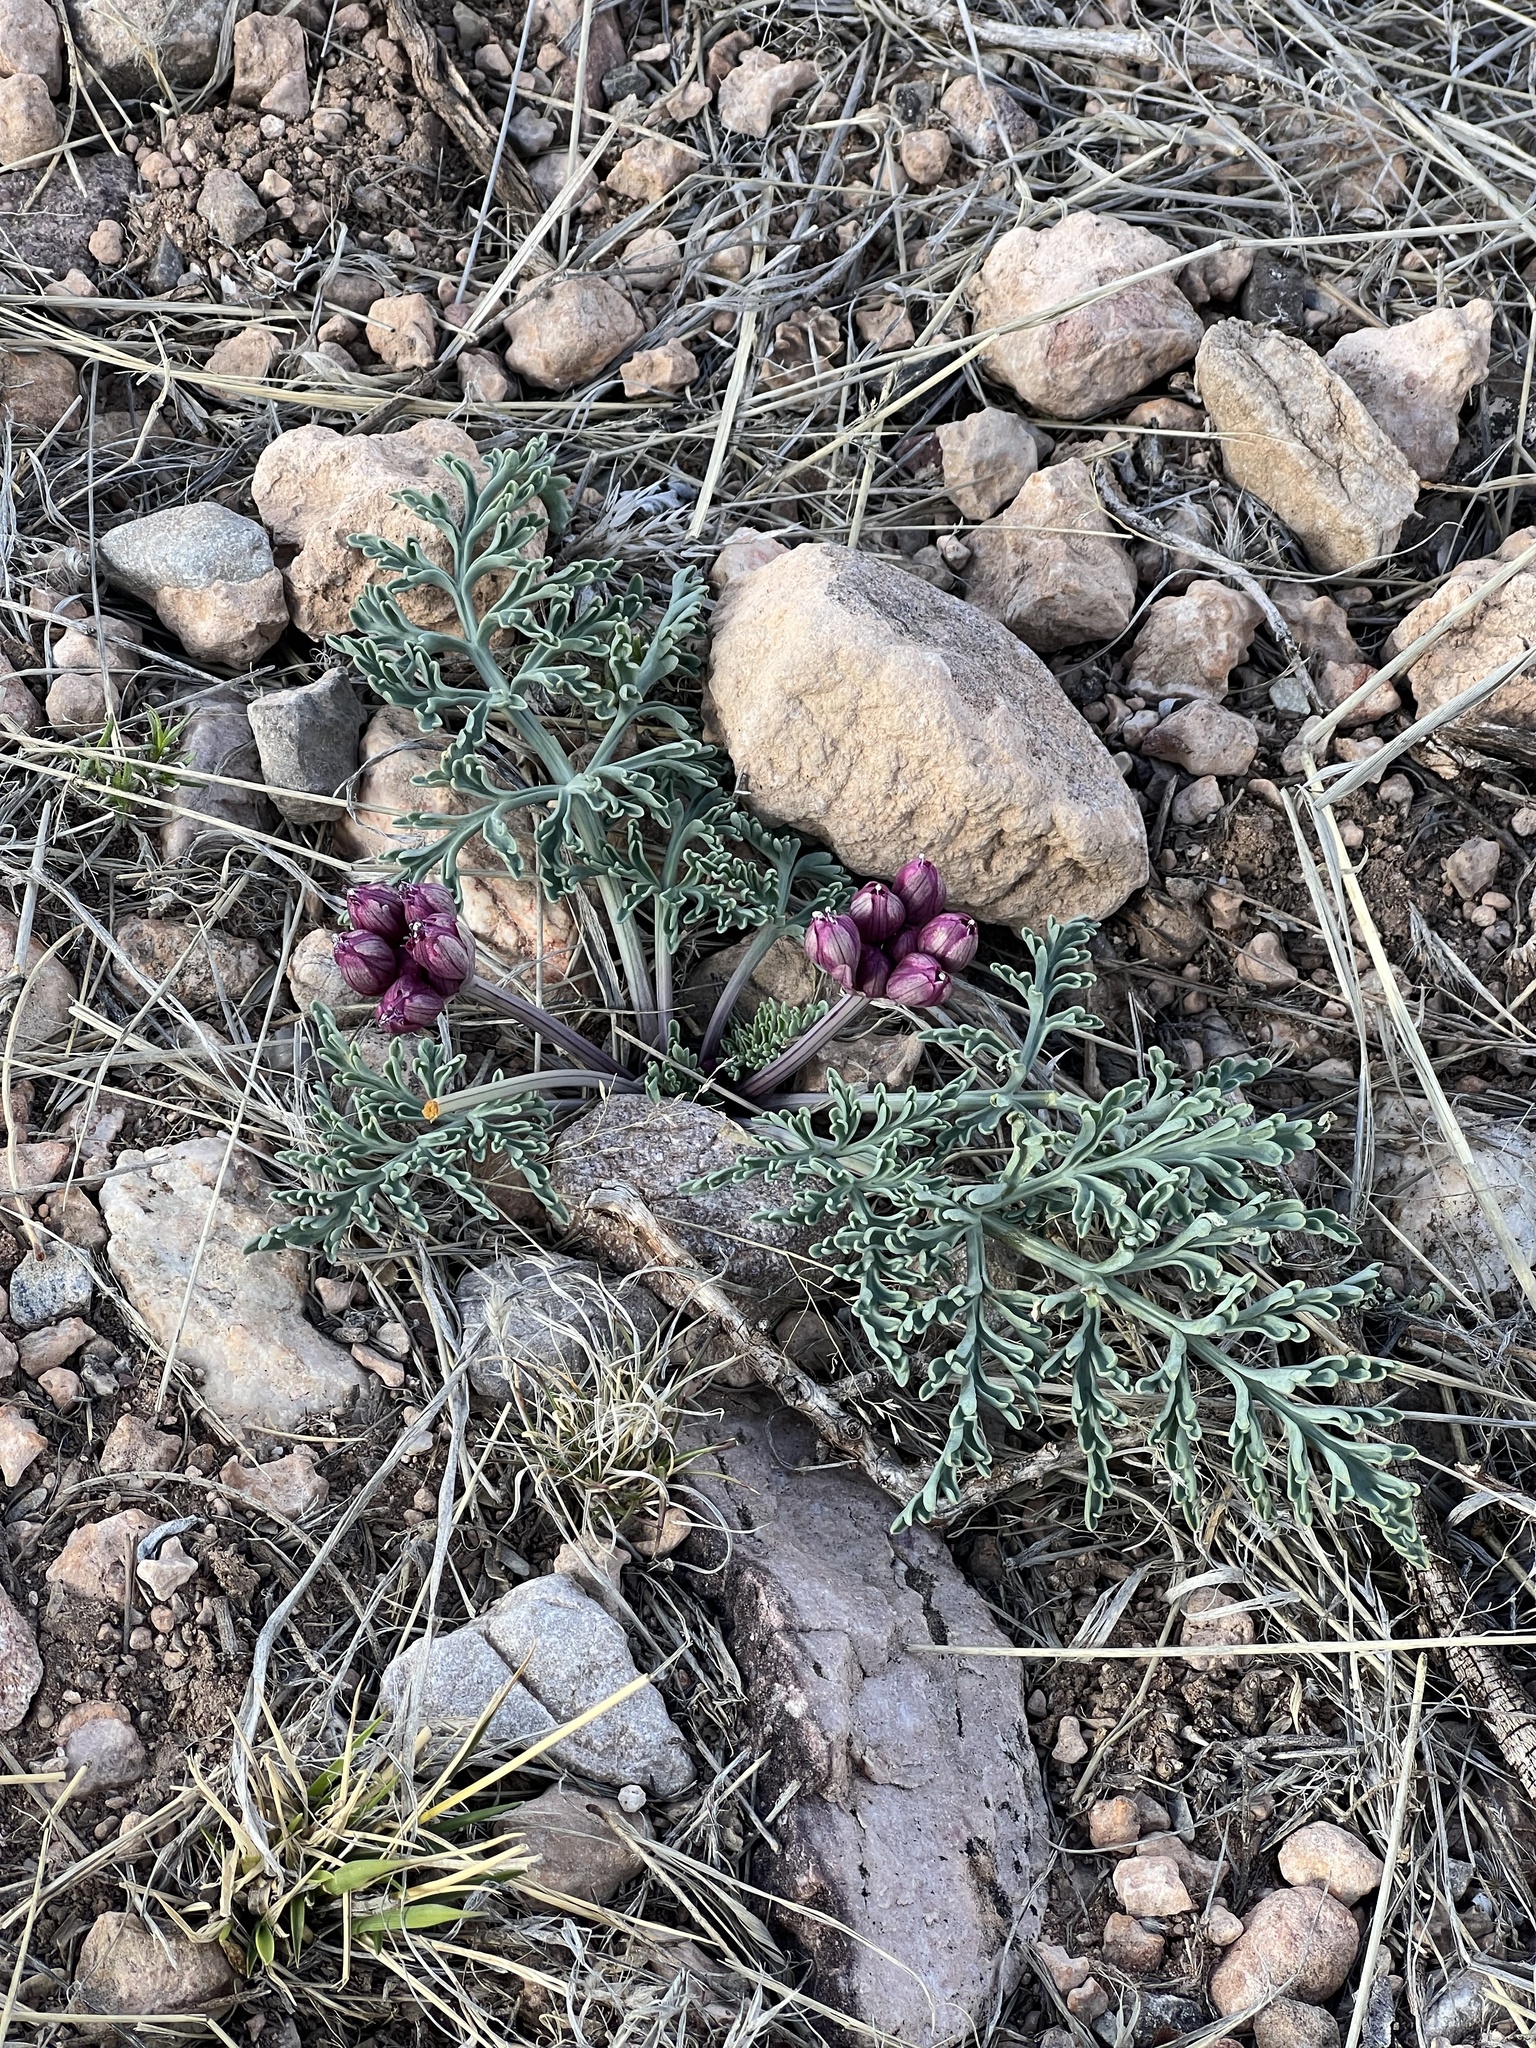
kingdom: Plantae
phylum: Tracheophyta
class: Magnoliopsida
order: Apiales
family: Apiaceae
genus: Vesper
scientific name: Vesper multinervatus
